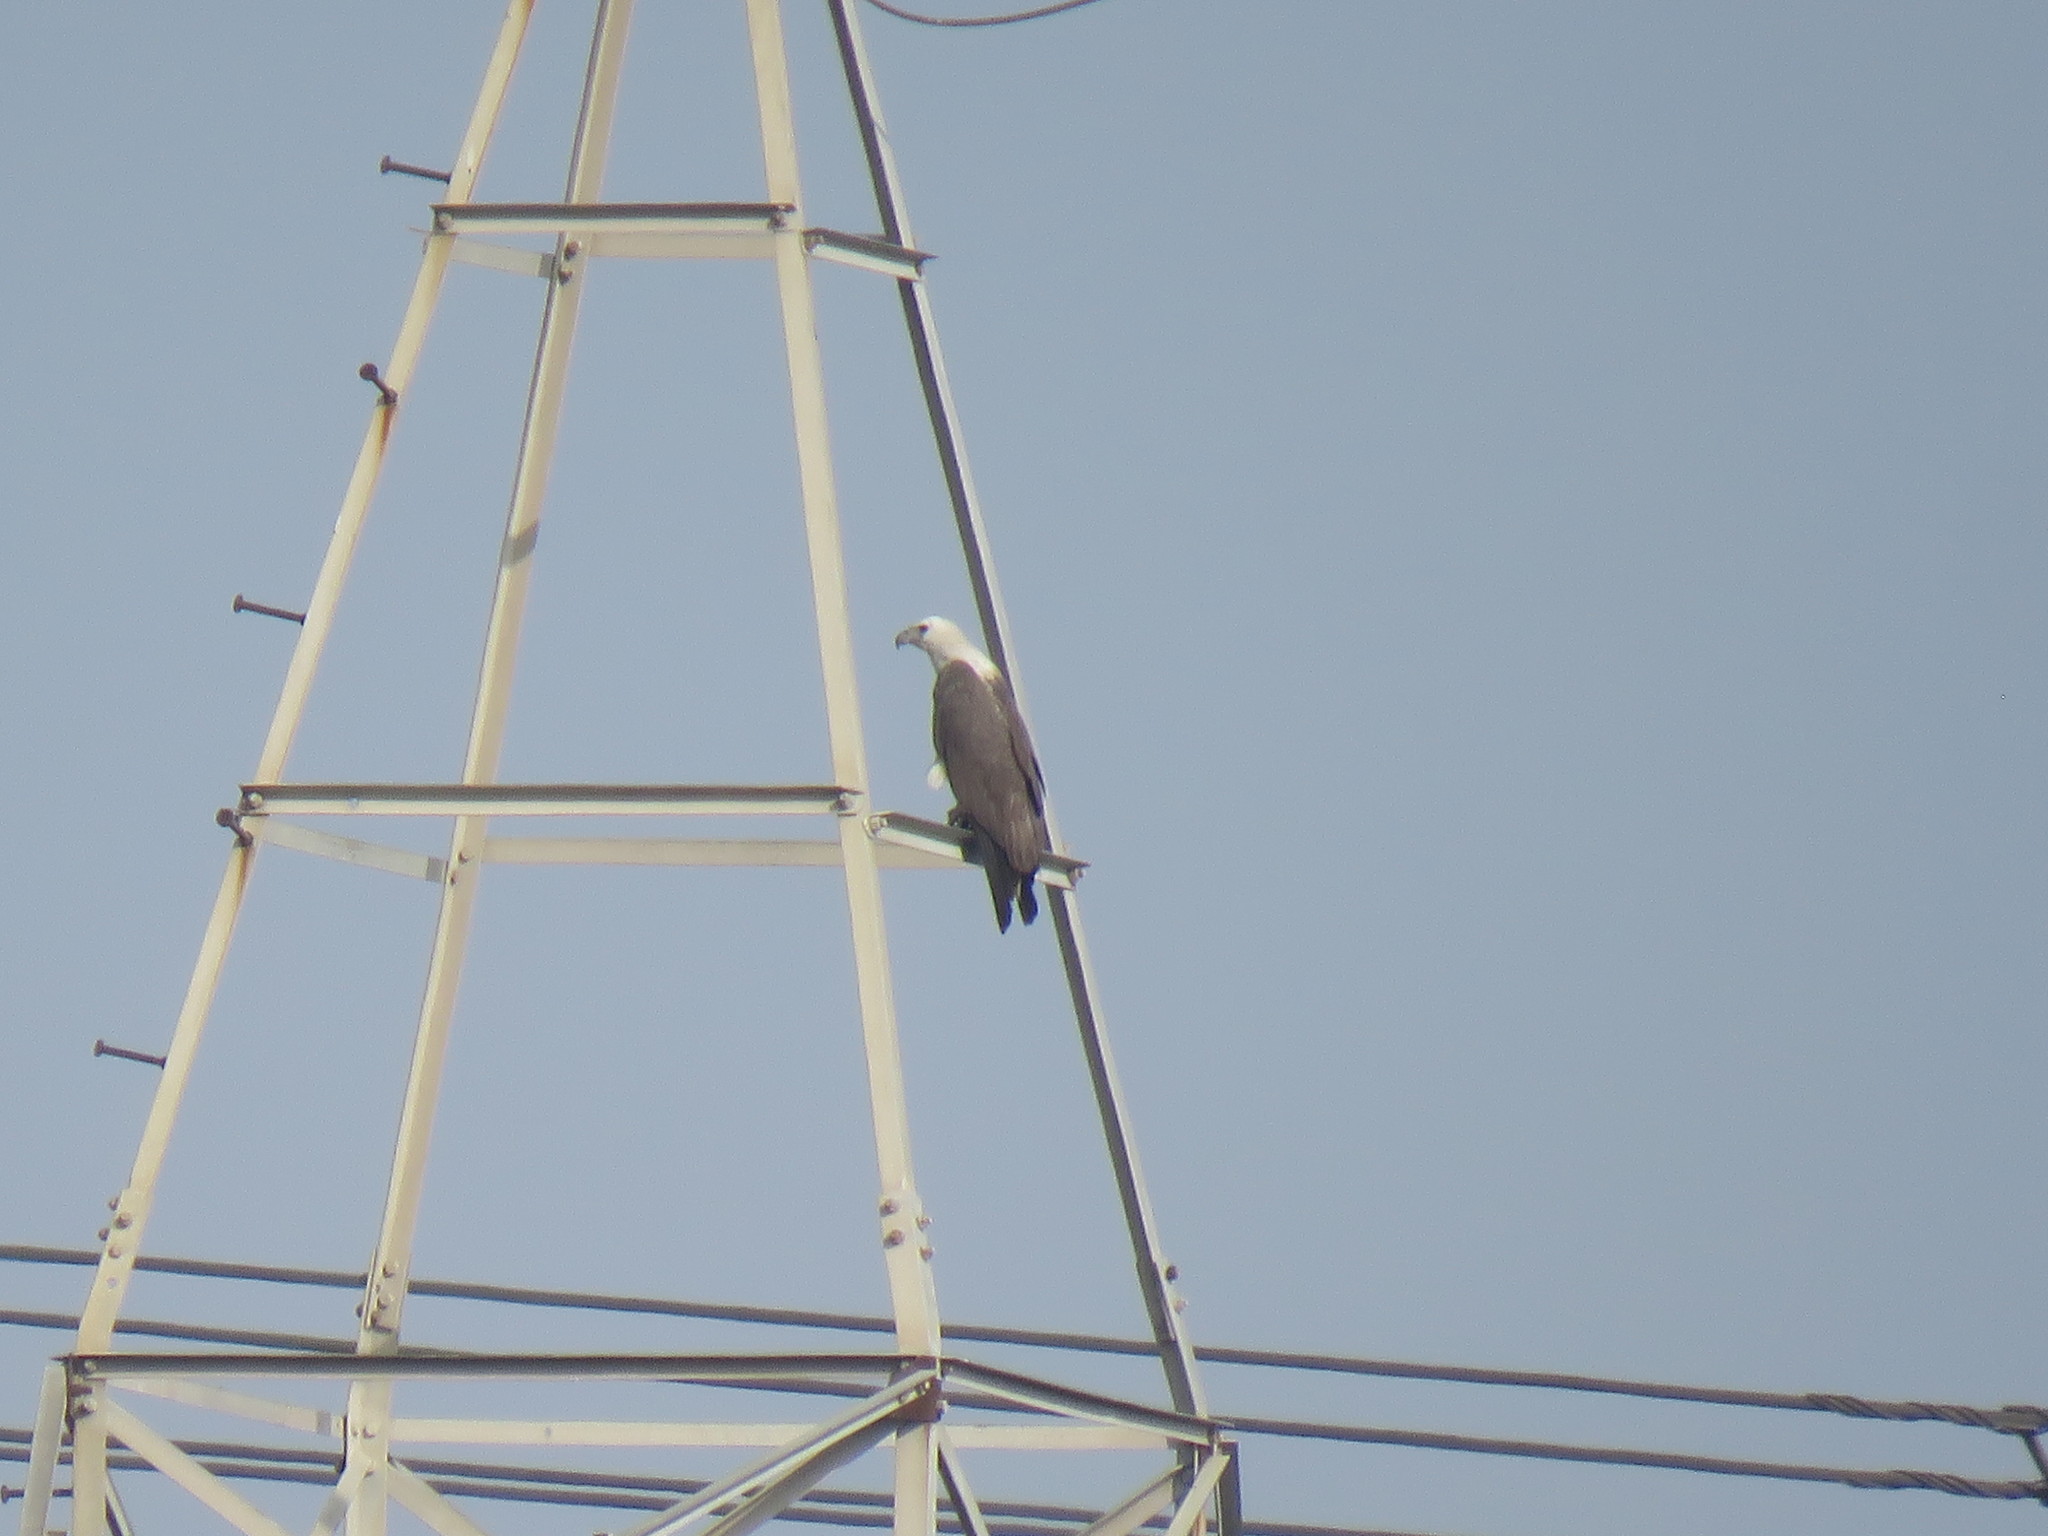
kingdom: Animalia
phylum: Chordata
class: Aves
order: Accipitriformes
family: Accipitridae
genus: Haliaeetus
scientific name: Haliaeetus leucogaster
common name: White-bellied sea eagle
